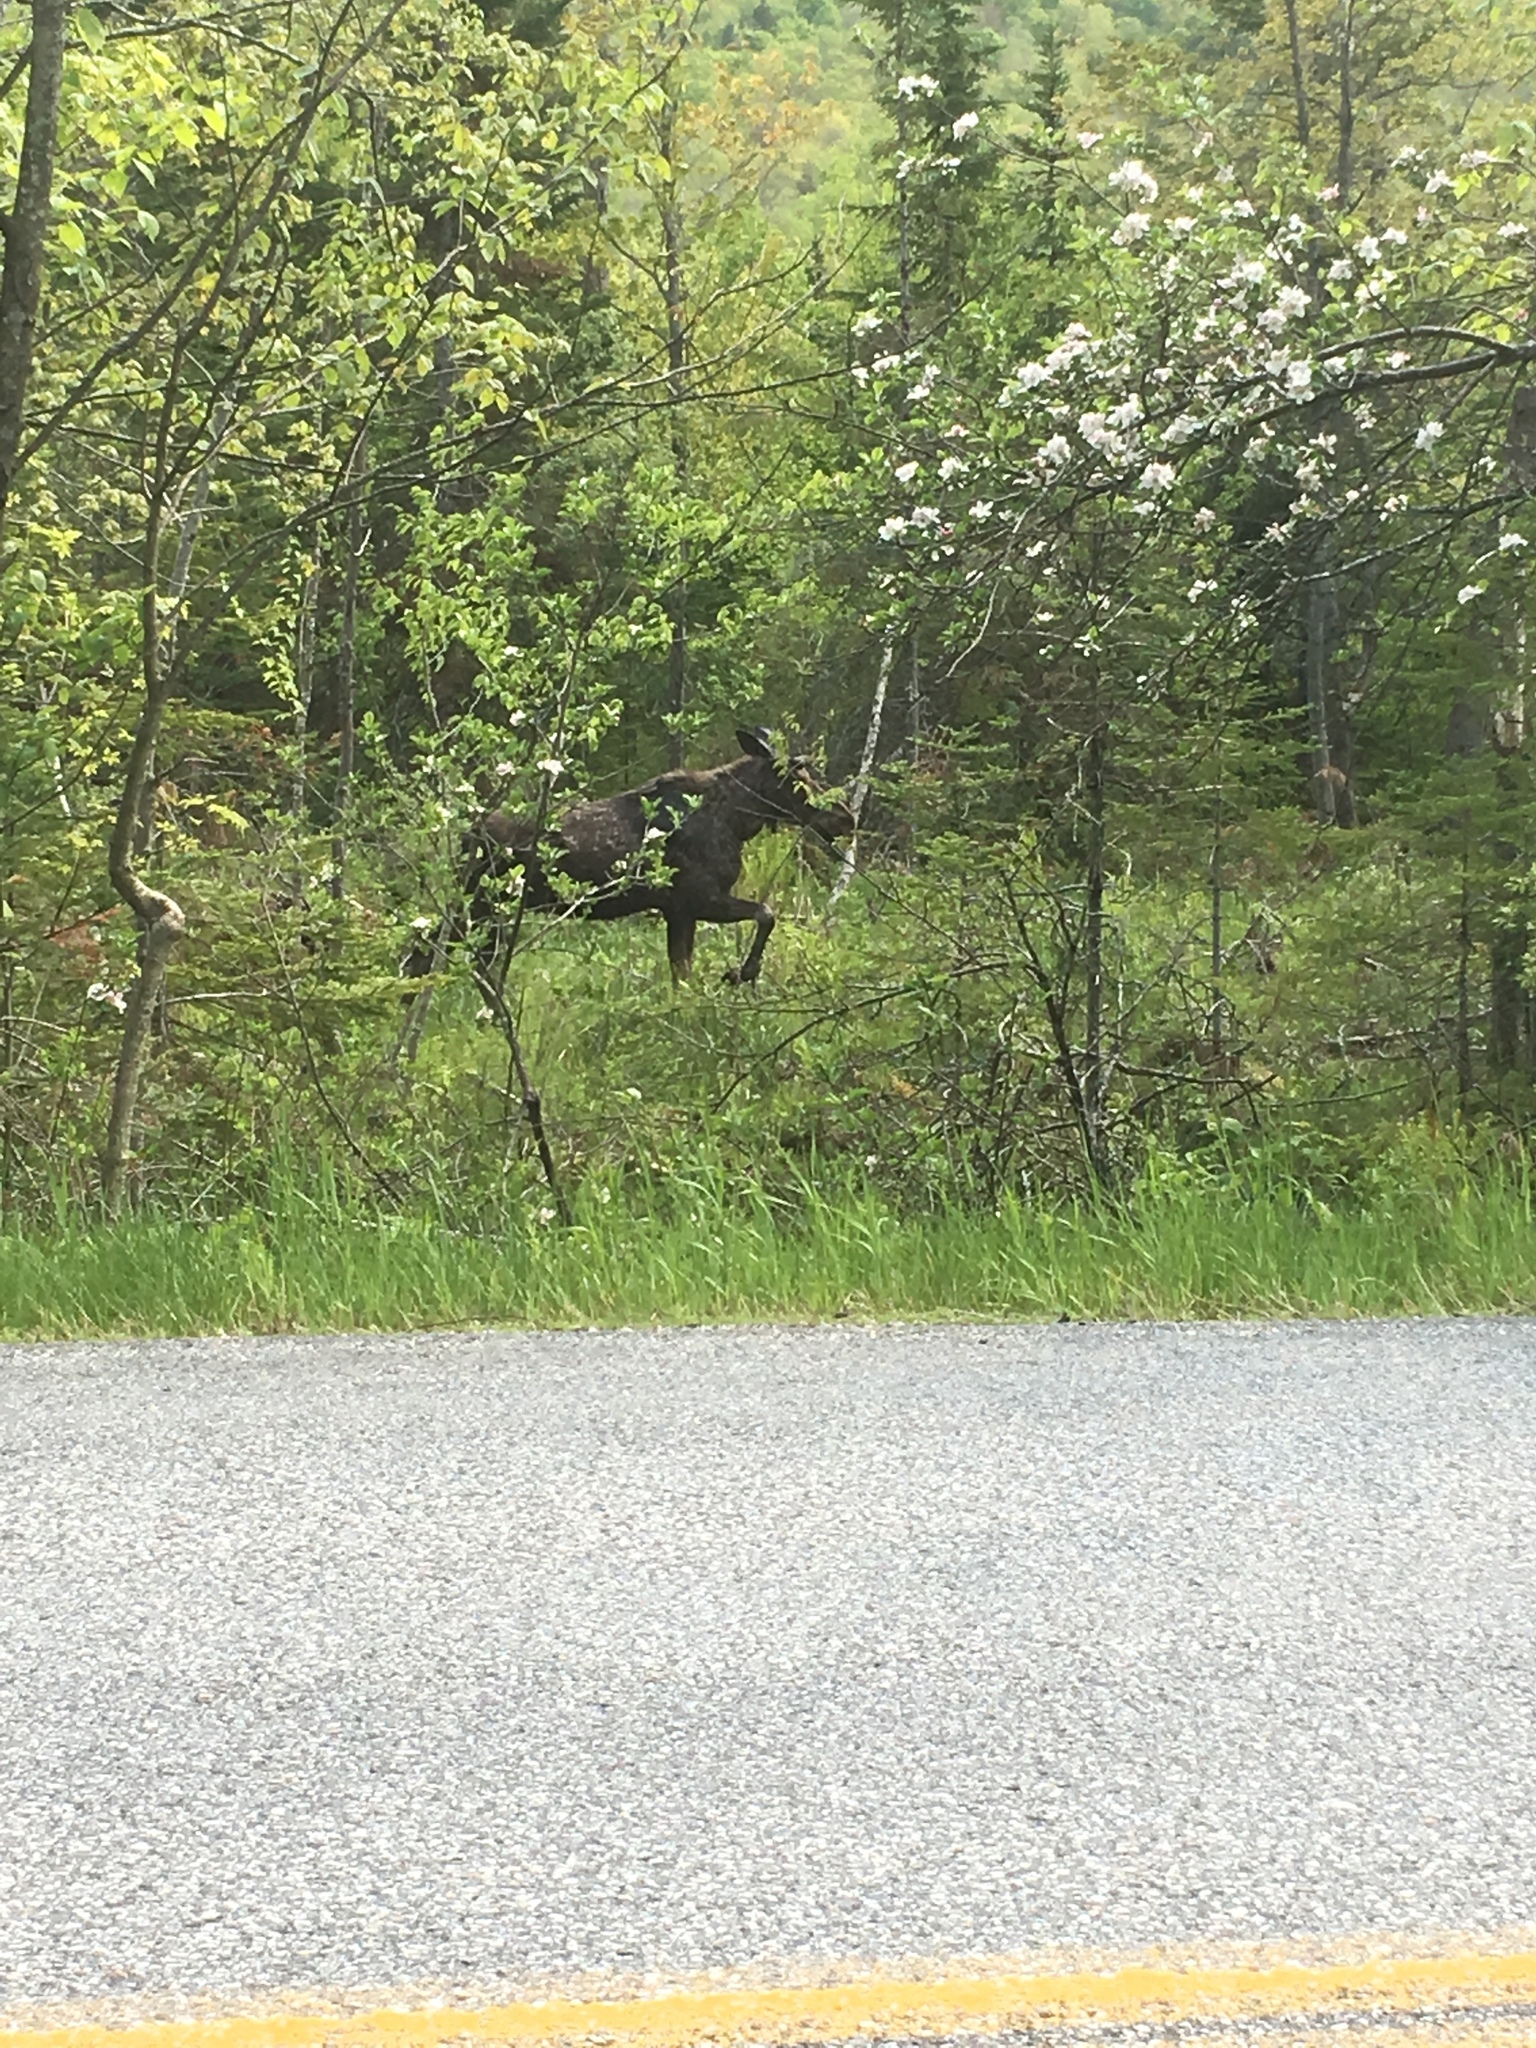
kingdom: Animalia
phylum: Chordata
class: Mammalia
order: Artiodactyla
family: Cervidae
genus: Alces
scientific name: Alces alces
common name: Moose
